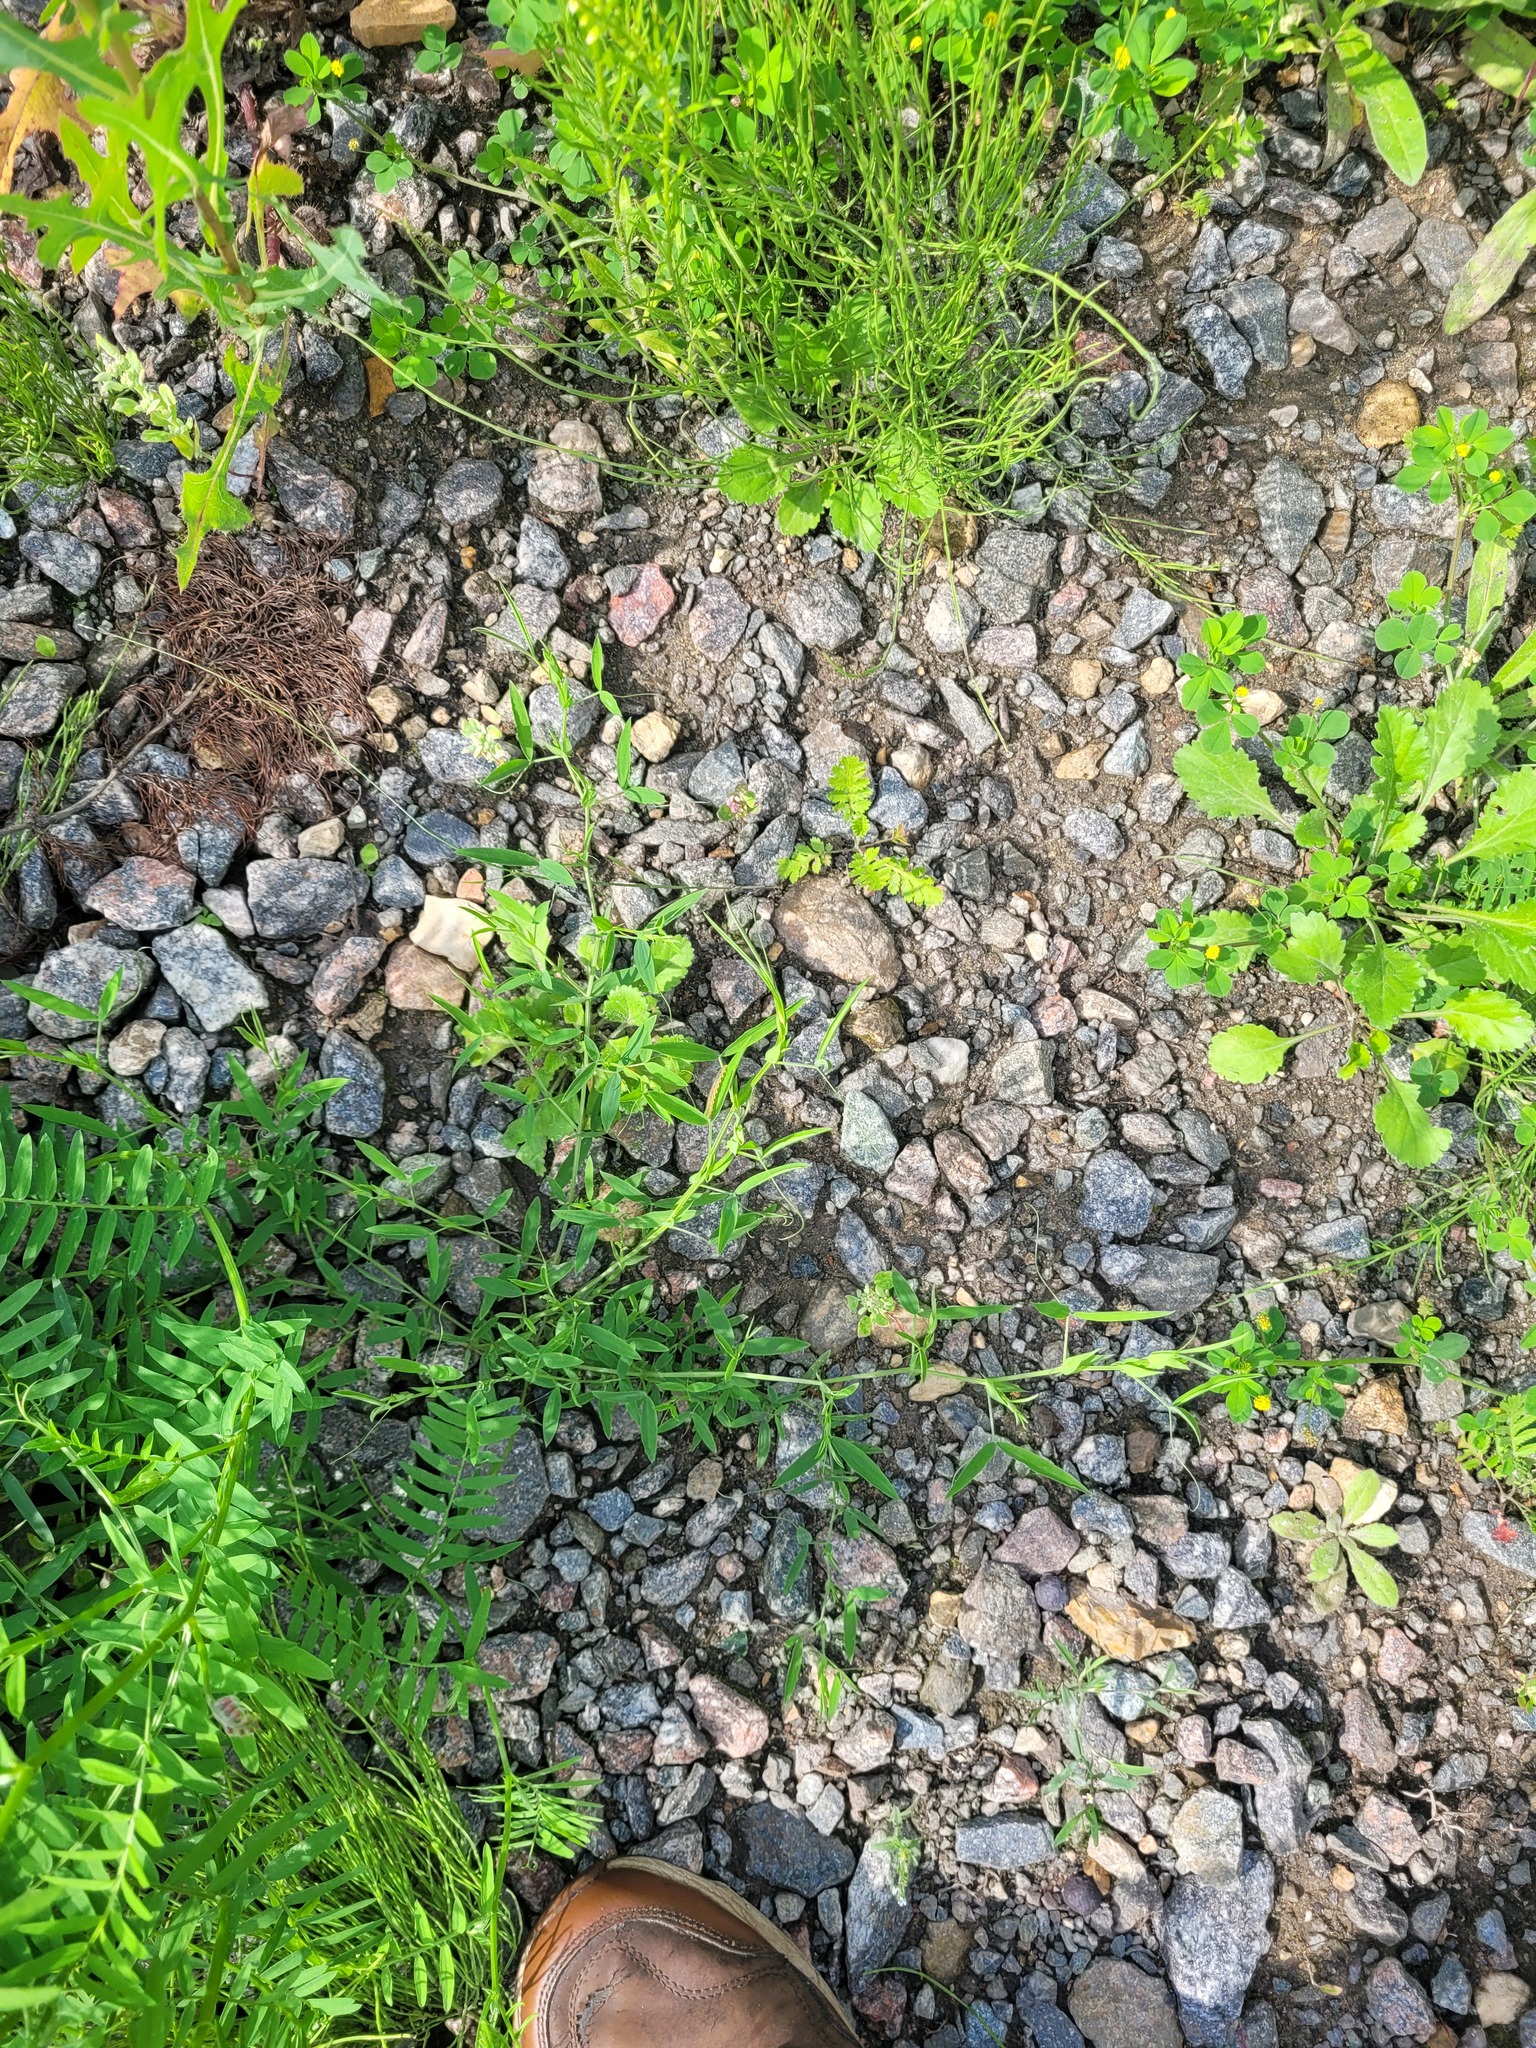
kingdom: Plantae
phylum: Tracheophyta
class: Magnoliopsida
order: Fabales
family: Fabaceae
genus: Lathyrus
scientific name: Lathyrus pratensis
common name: Meadow vetchling
